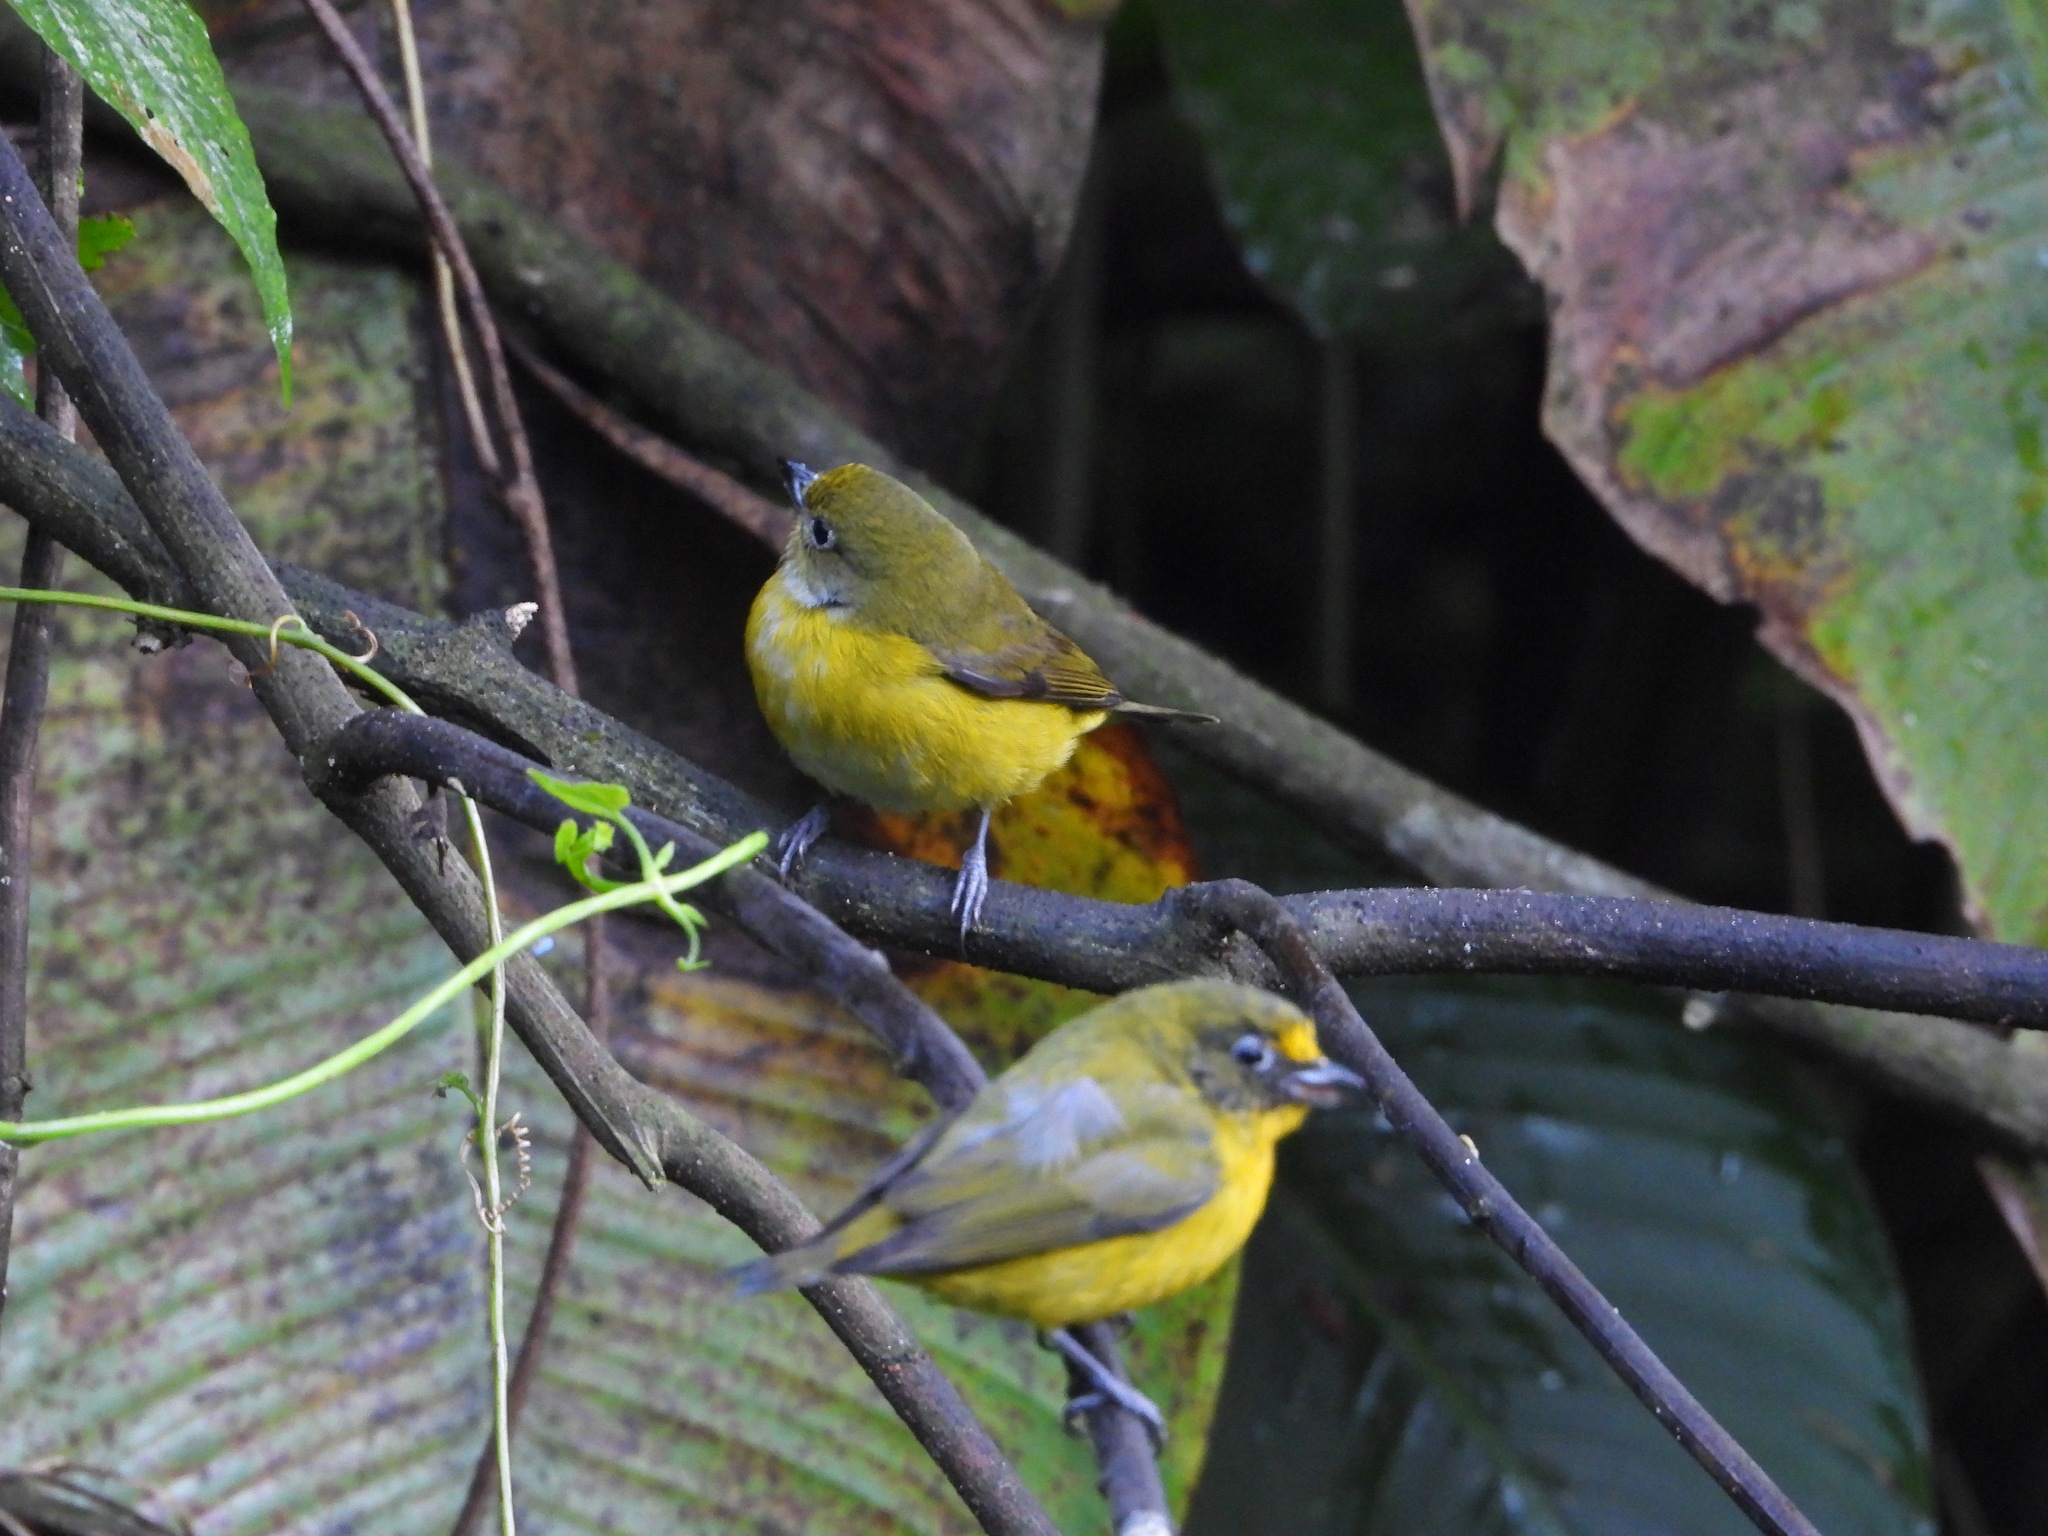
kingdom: Animalia
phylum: Chordata
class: Aves
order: Passeriformes
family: Fringillidae
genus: Euphonia
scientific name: Euphonia hirundinacea
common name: Yellow-throated euphonia
